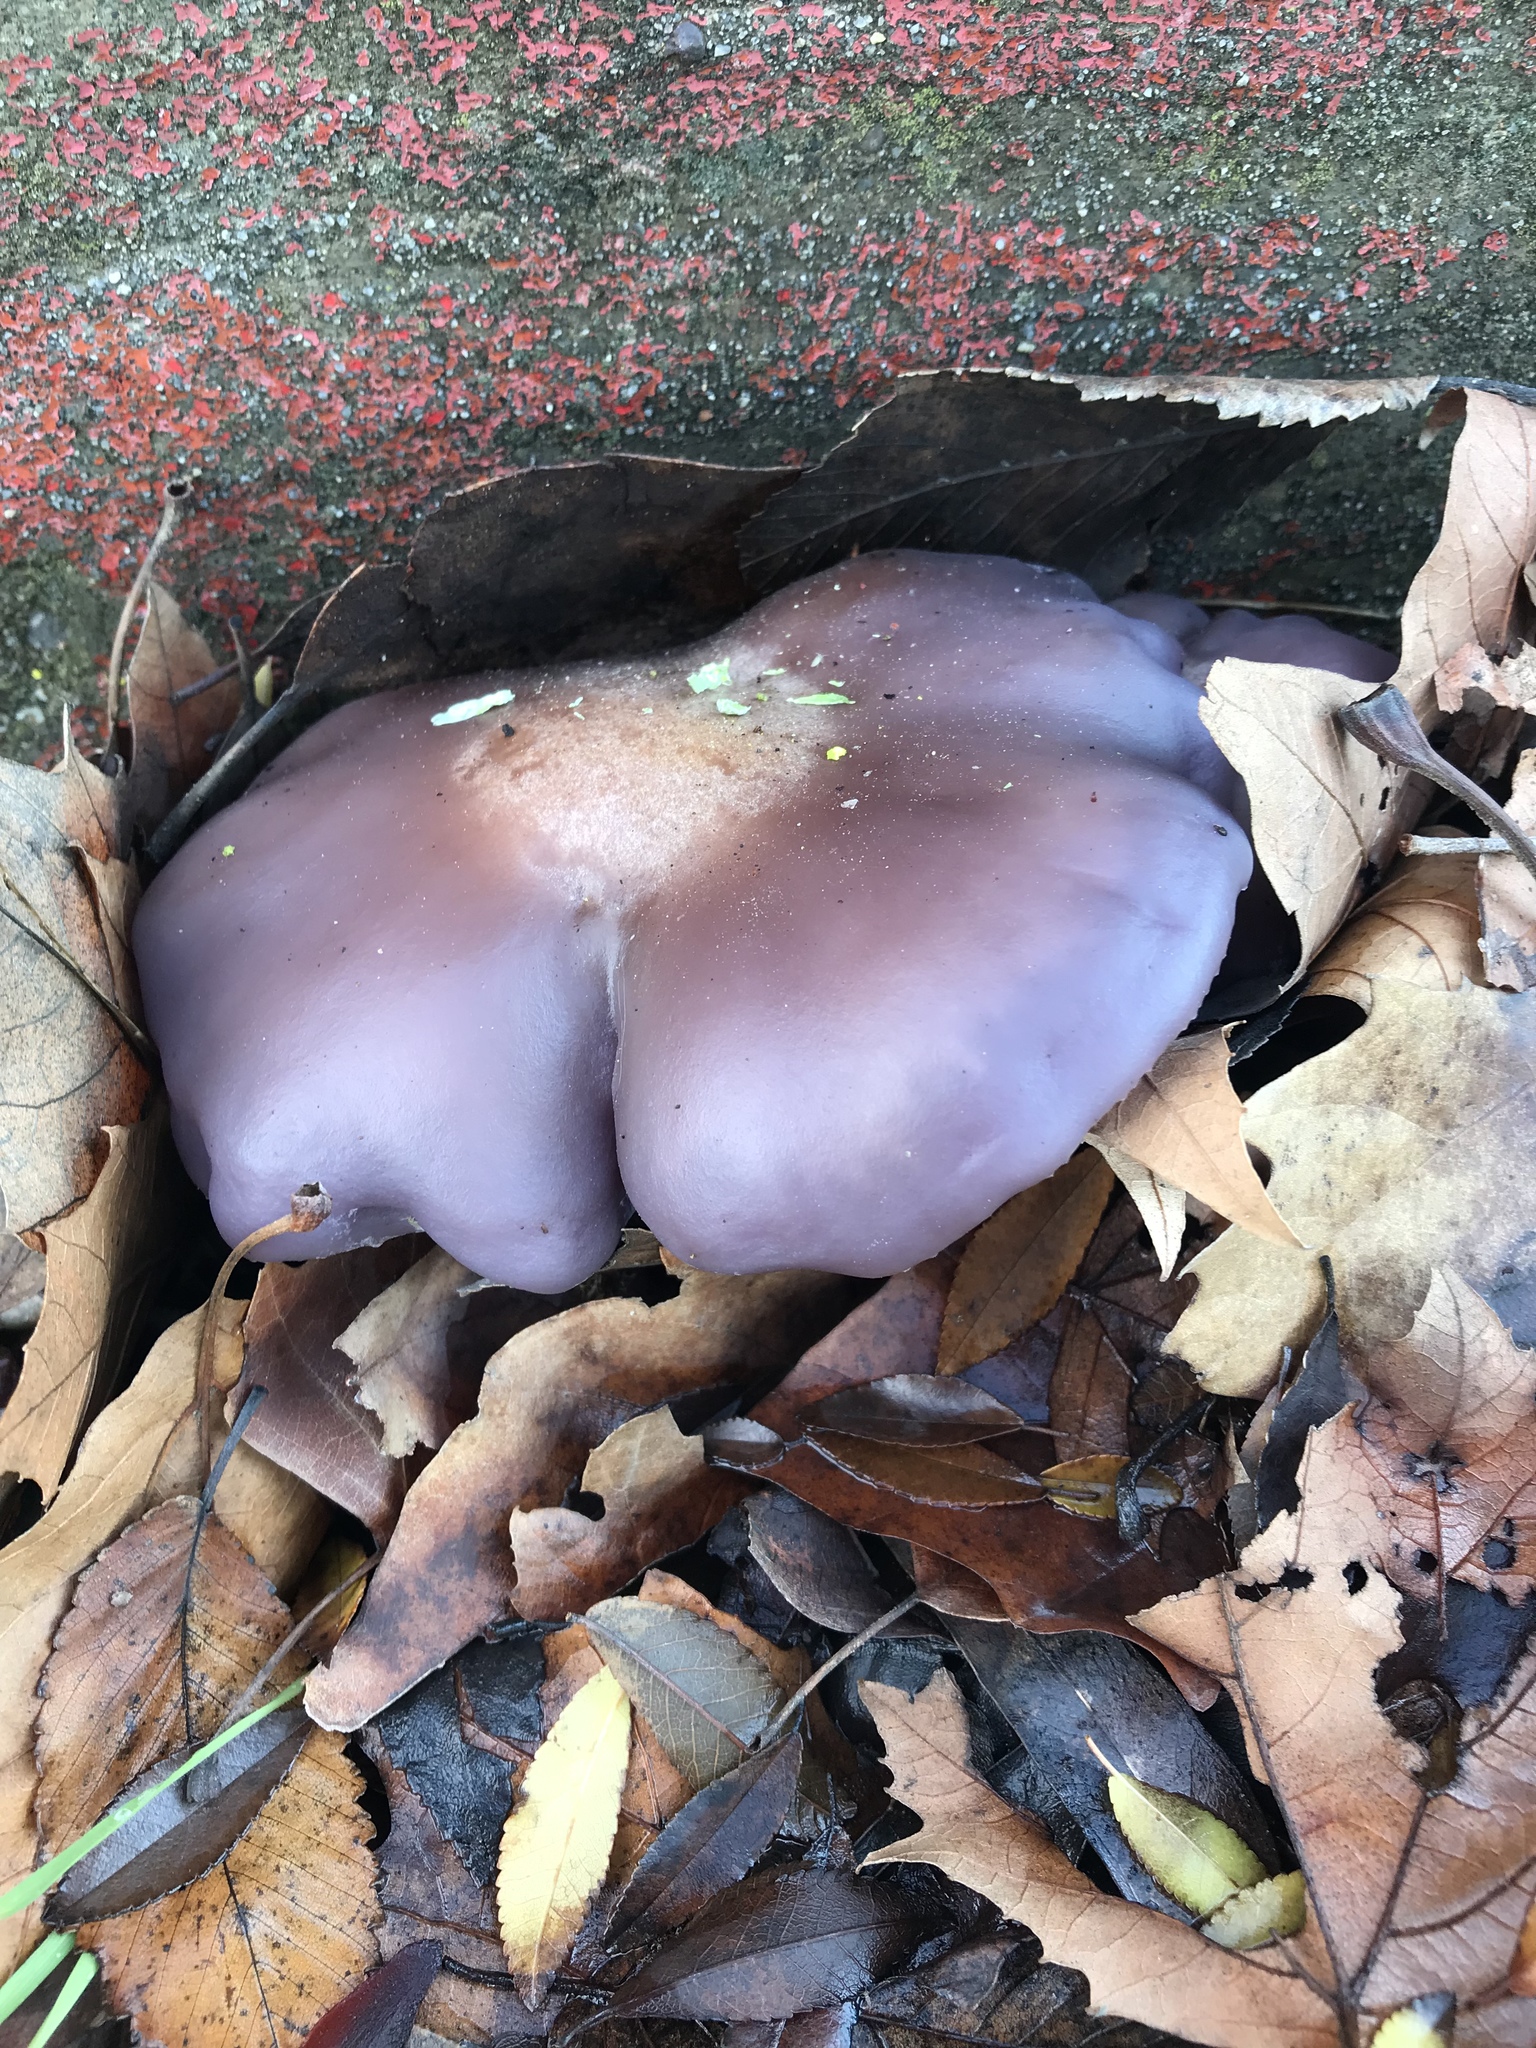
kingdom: Fungi
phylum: Basidiomycota
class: Agaricomycetes
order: Agaricales
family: Tricholomataceae
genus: Collybia
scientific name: Collybia
